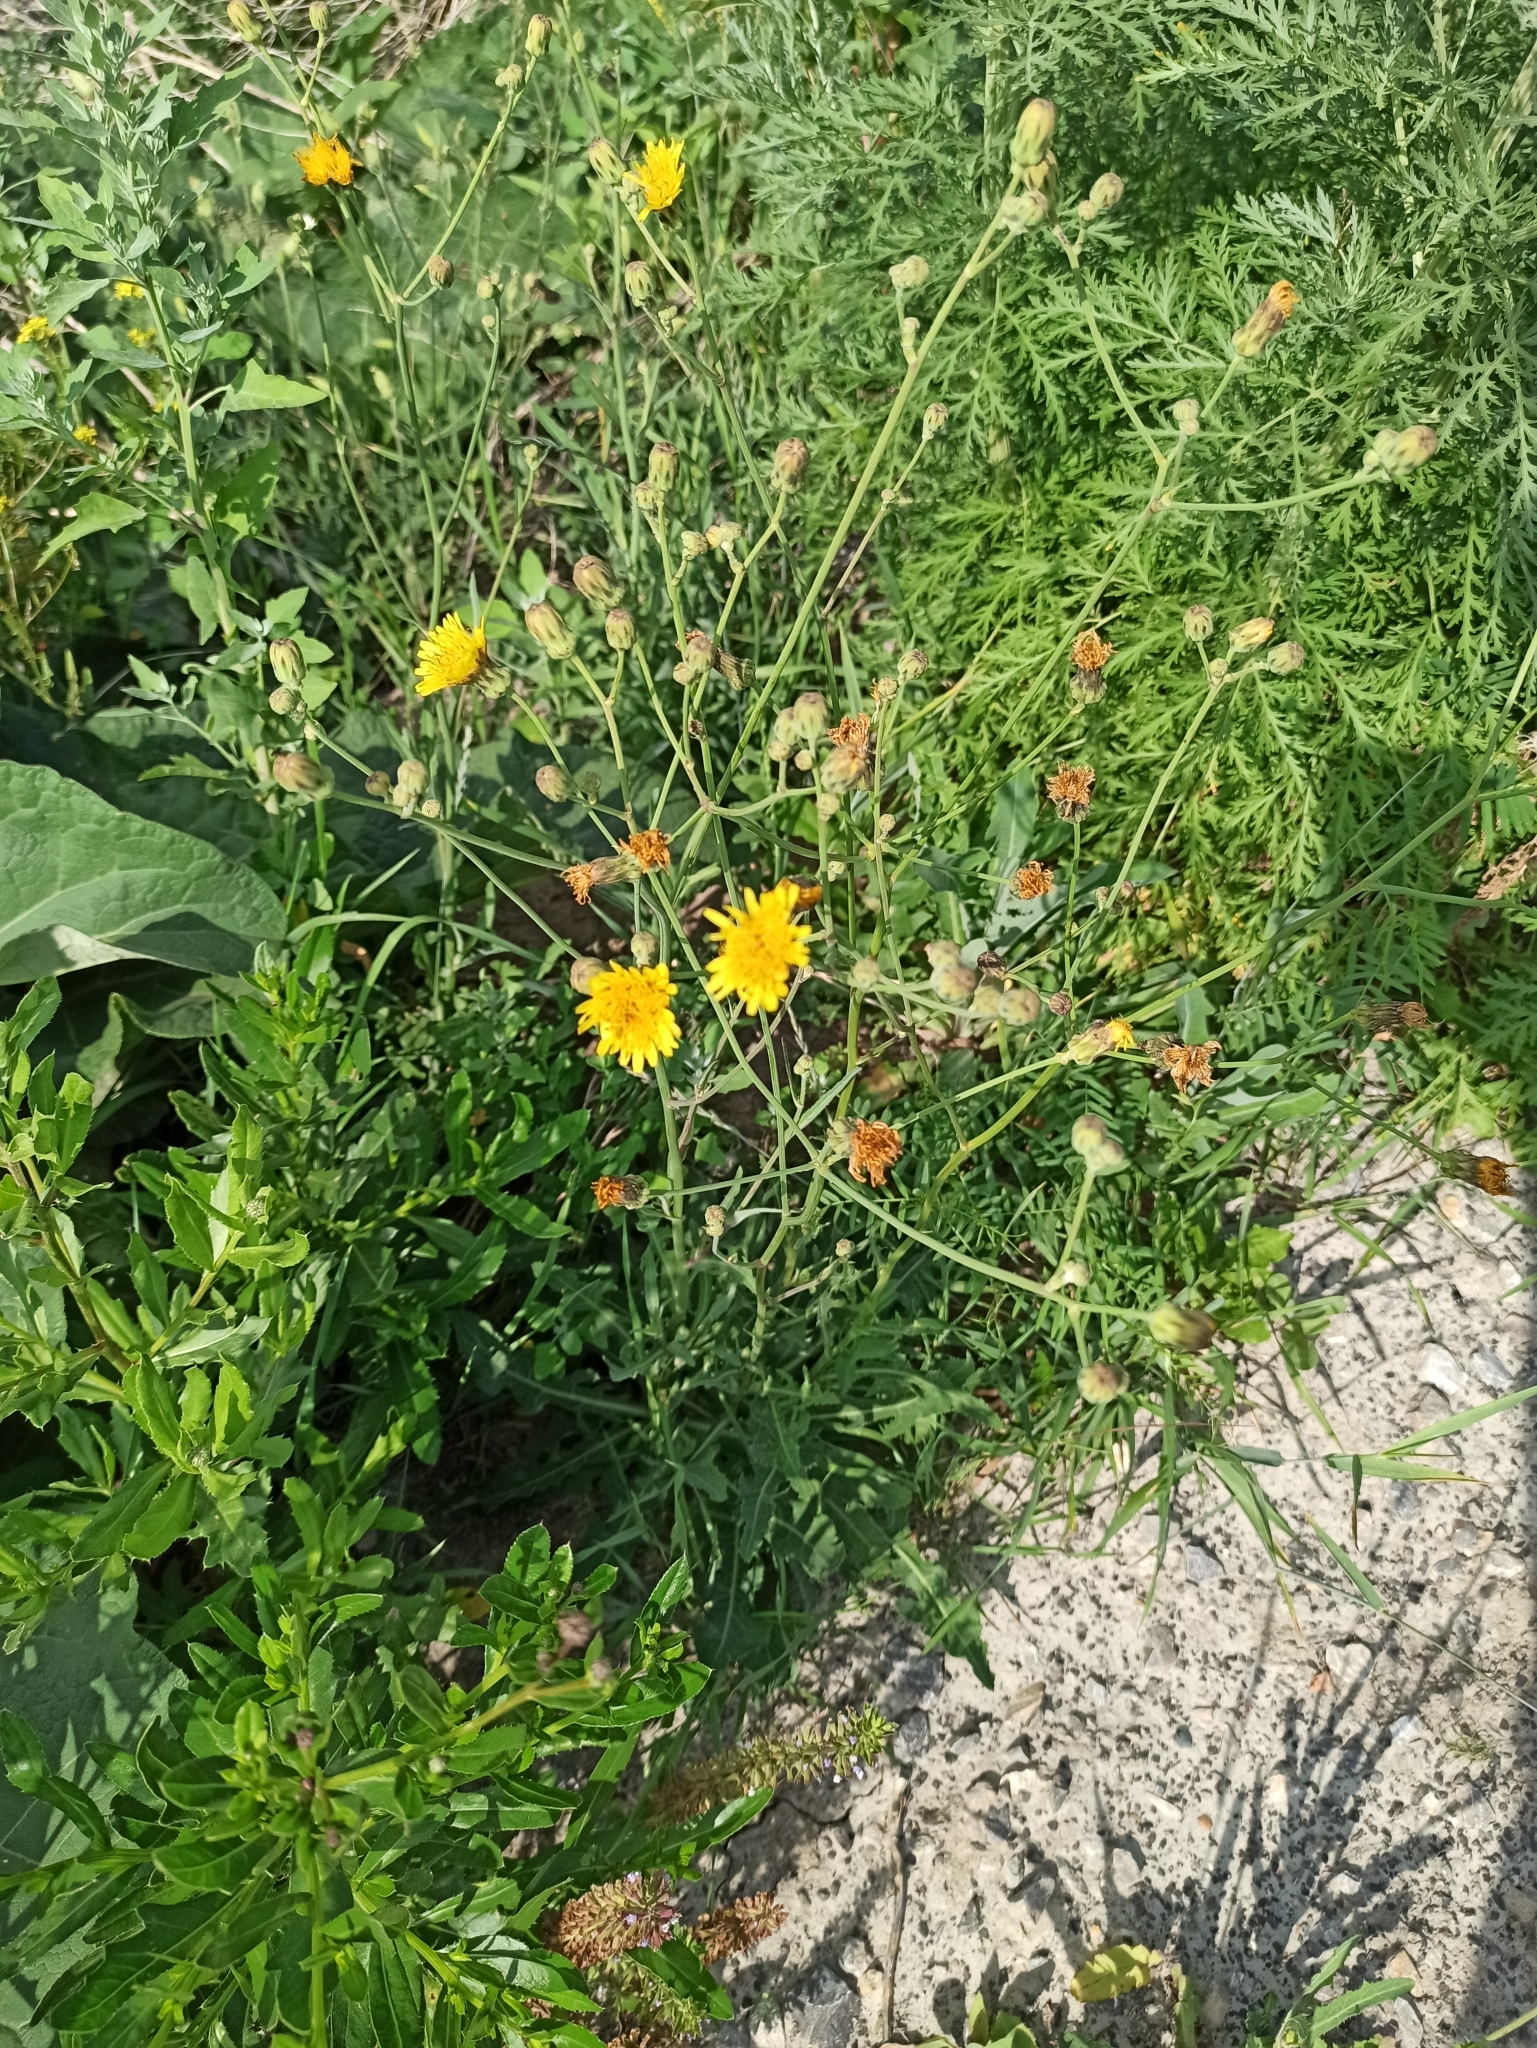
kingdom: Plantae
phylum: Tracheophyta
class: Magnoliopsida
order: Asterales
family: Asteraceae
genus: Sonchus
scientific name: Sonchus arvensis
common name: Perennial sow-thistle
